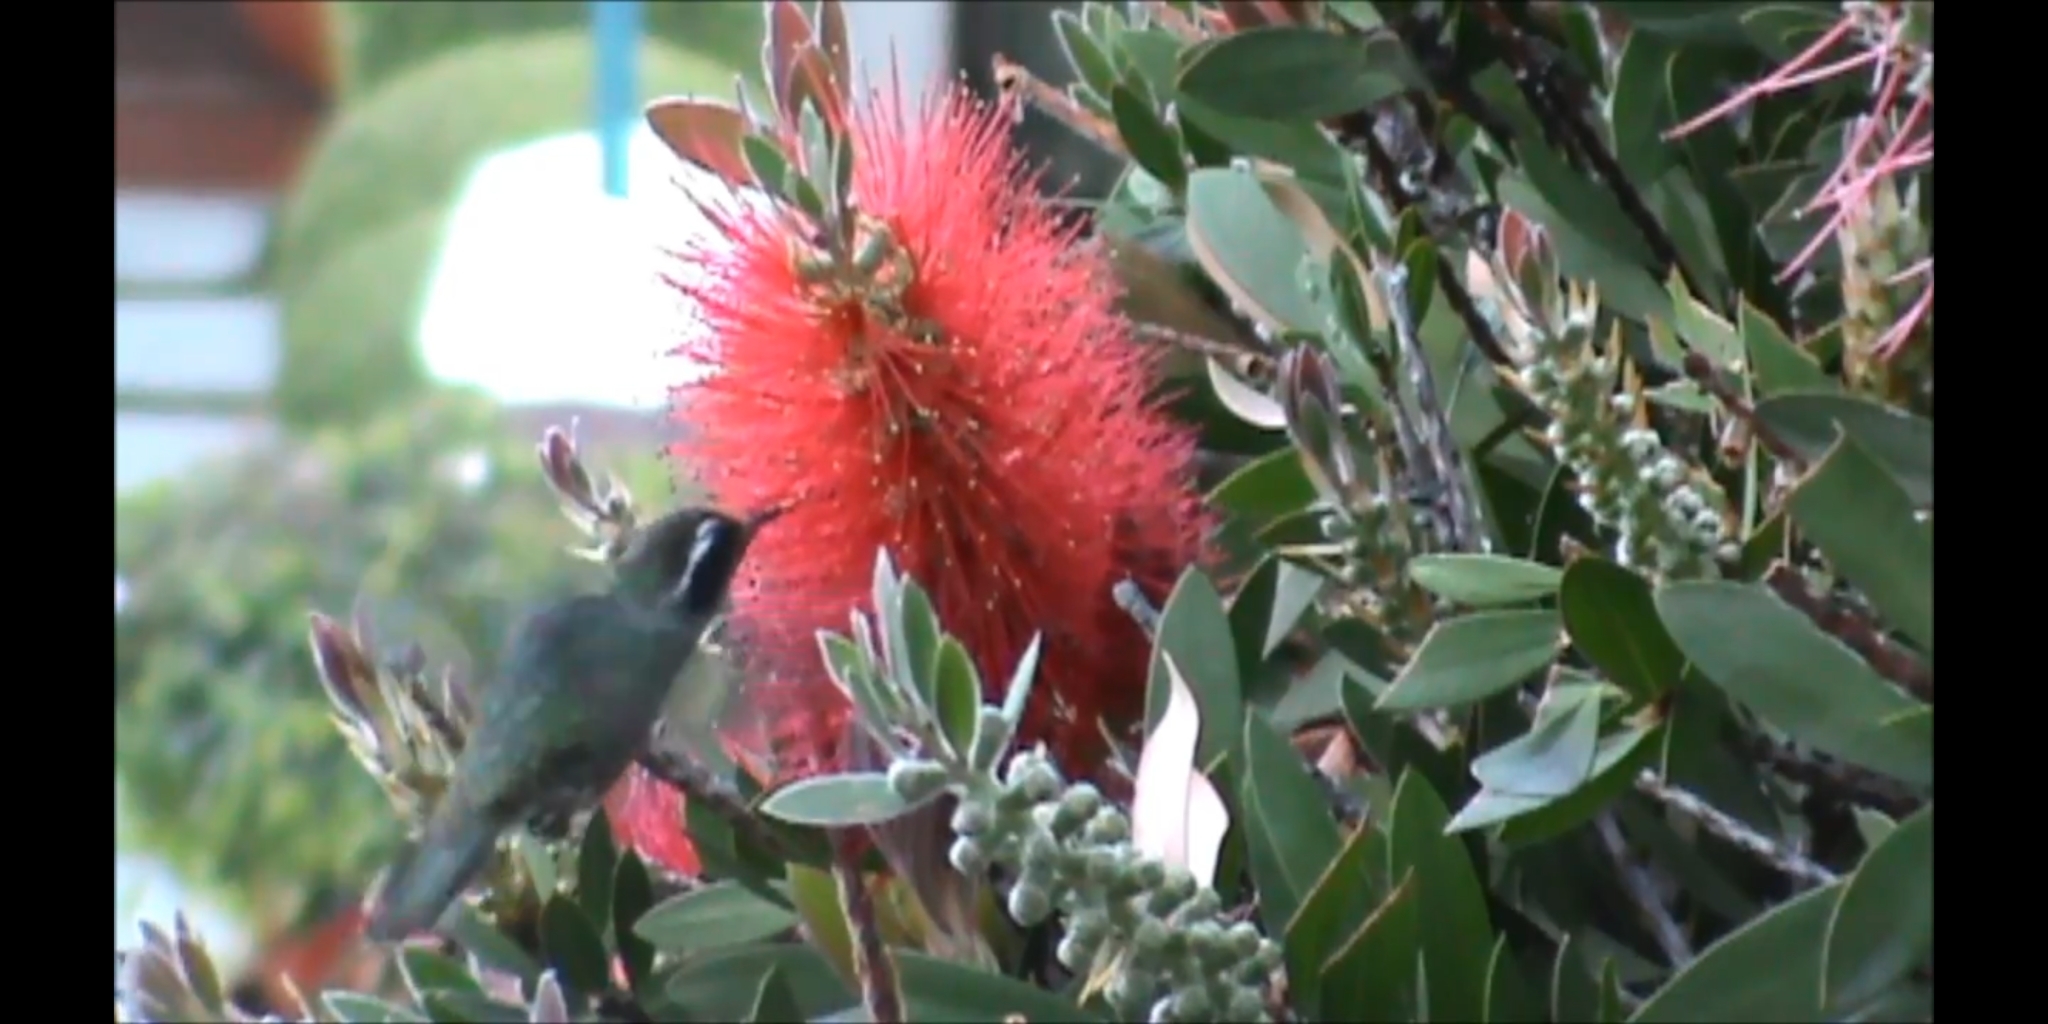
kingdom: Animalia
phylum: Chordata
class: Aves
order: Apodiformes
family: Trochilidae
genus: Basilinna
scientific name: Basilinna leucotis
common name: White-eared hummingbird
